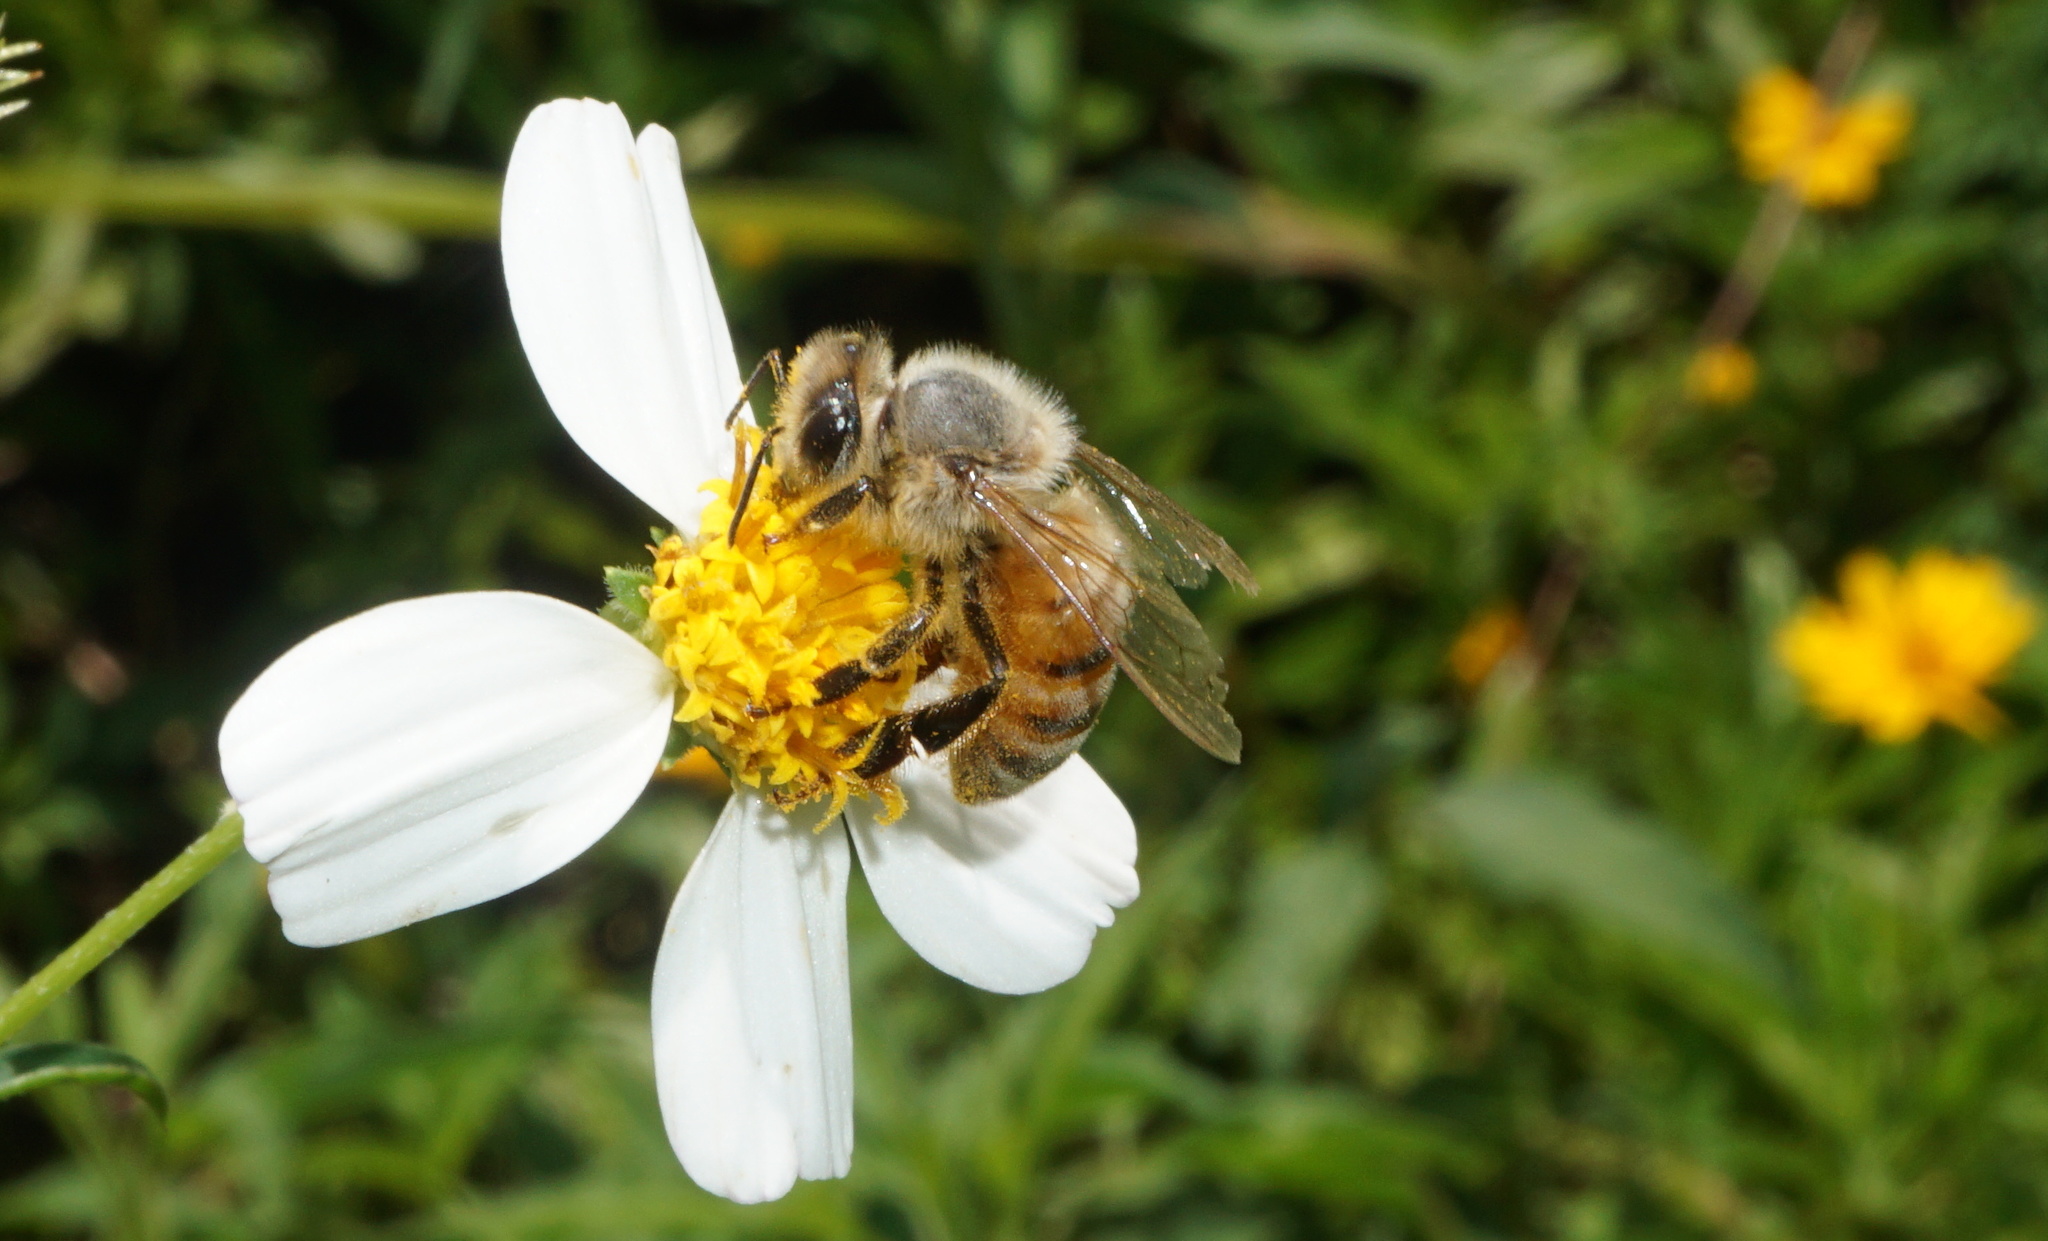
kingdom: Animalia
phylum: Arthropoda
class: Insecta
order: Hymenoptera
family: Apidae
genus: Apis
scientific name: Apis mellifera
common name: Honey bee
